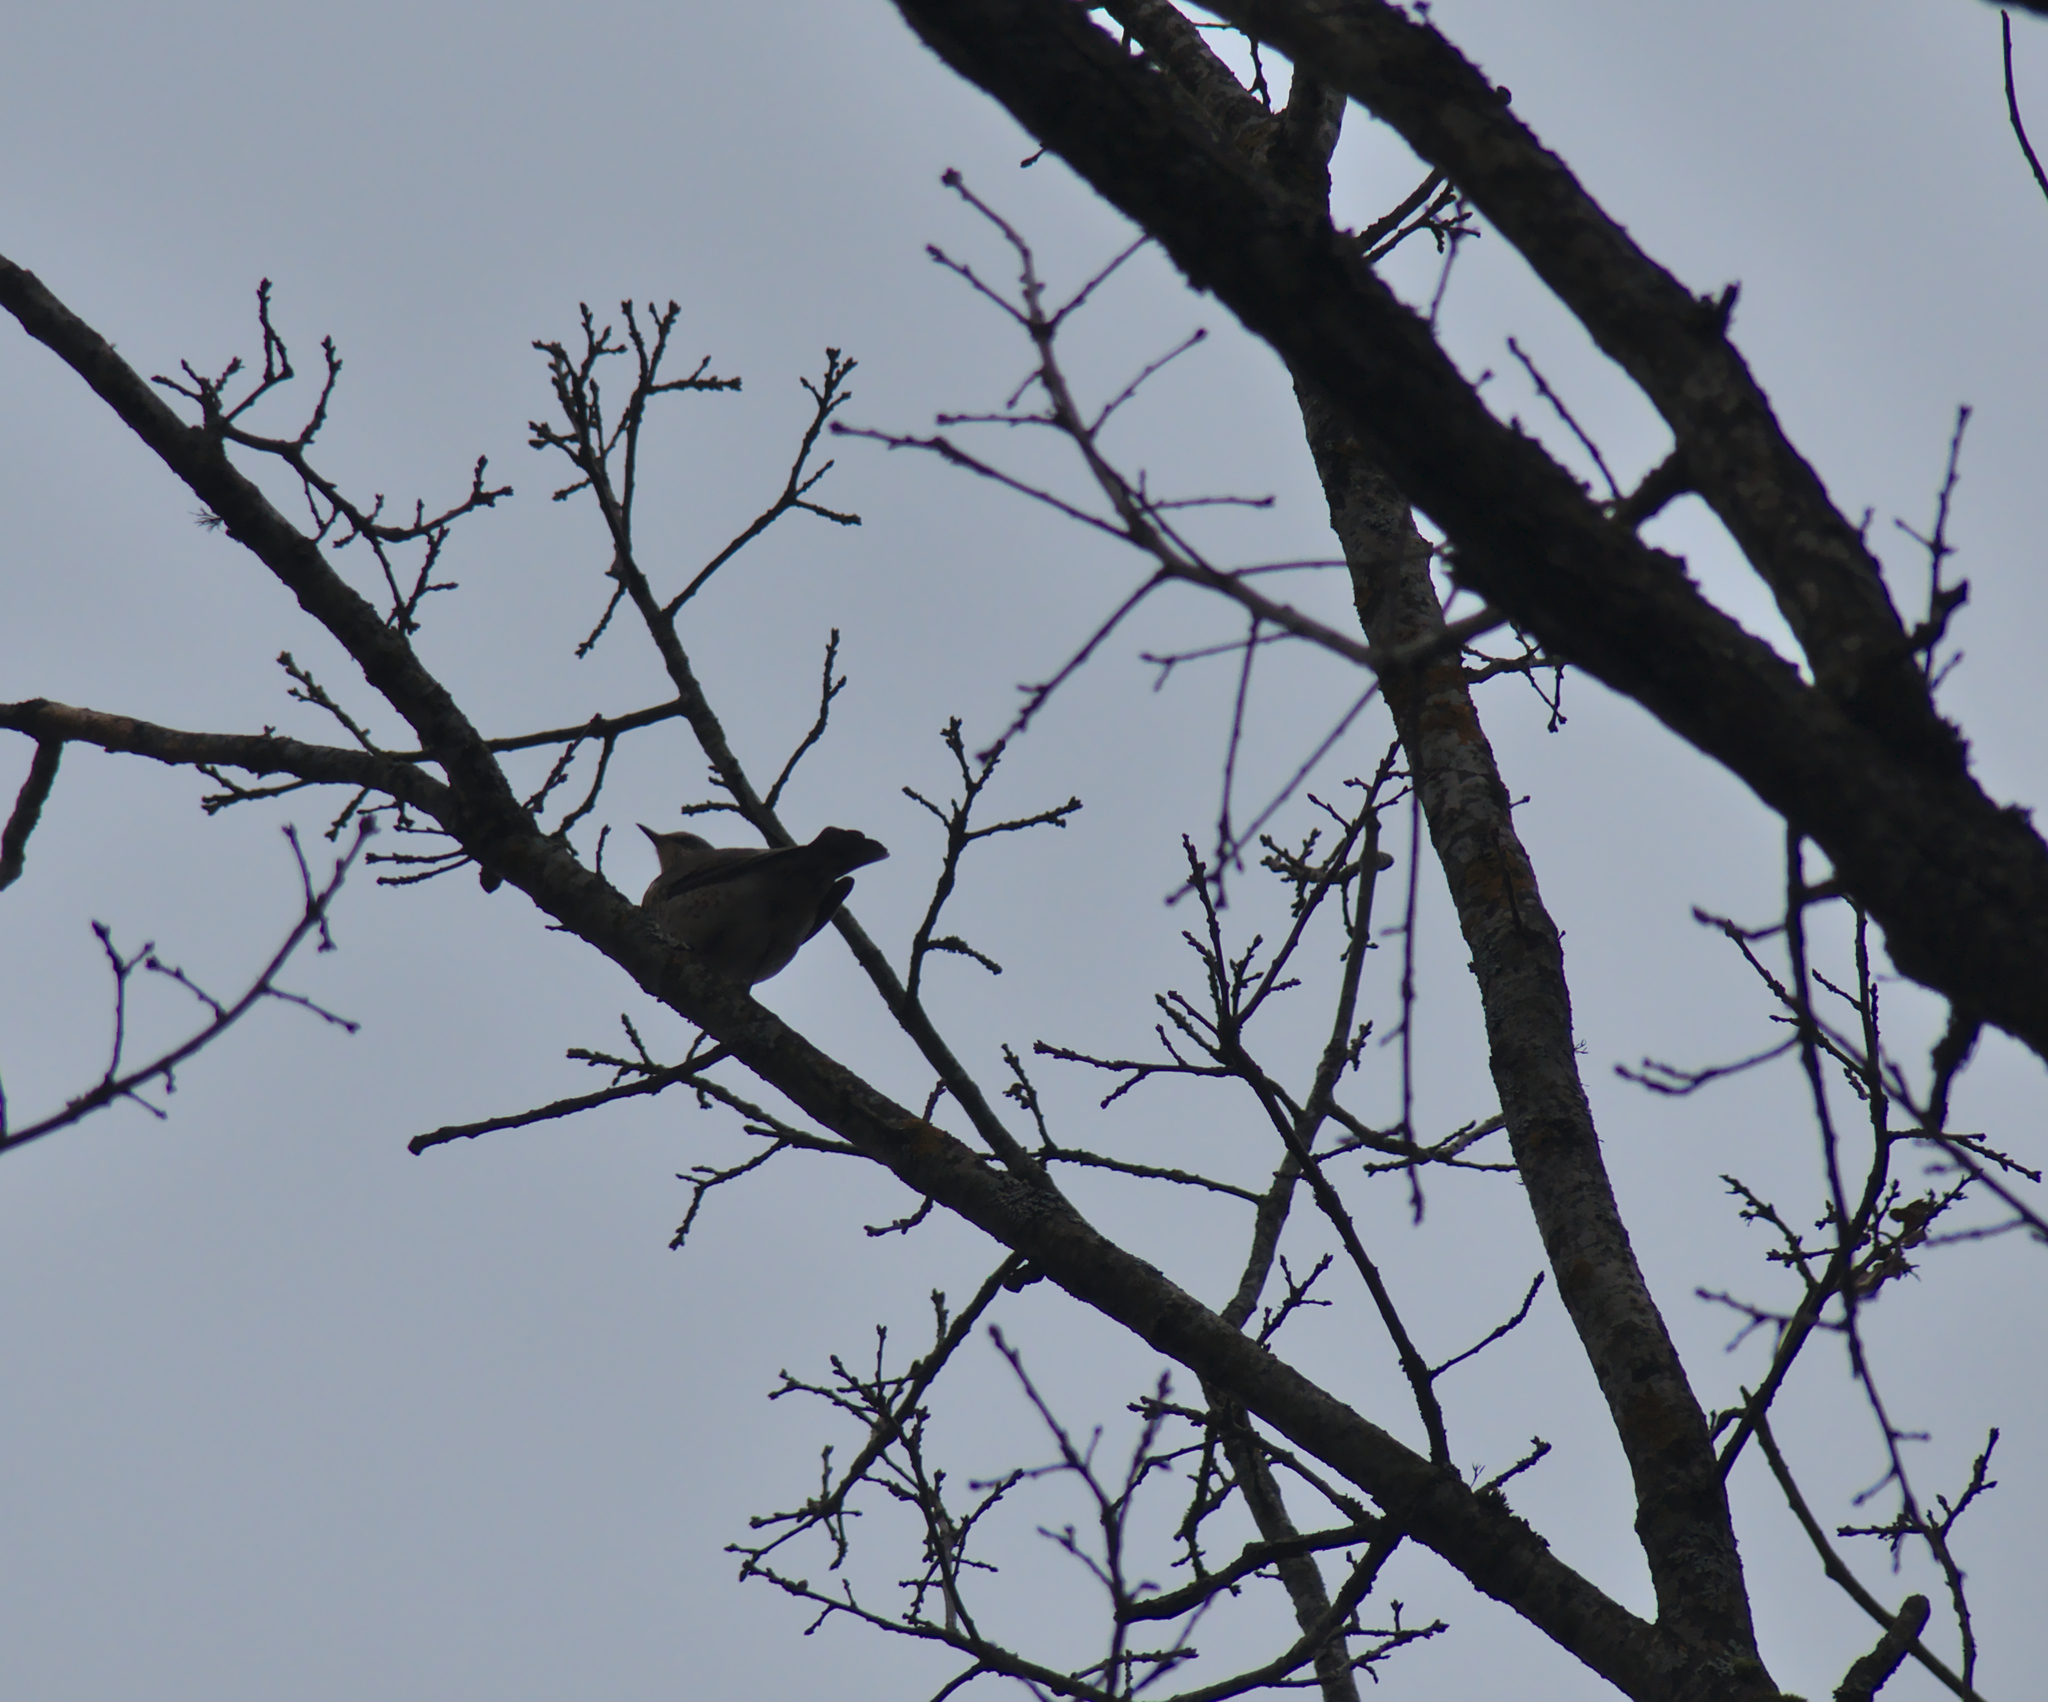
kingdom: Animalia
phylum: Chordata
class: Aves
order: Passeriformes
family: Turdidae
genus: Turdus
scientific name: Turdus pilaris
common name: Fieldfare
